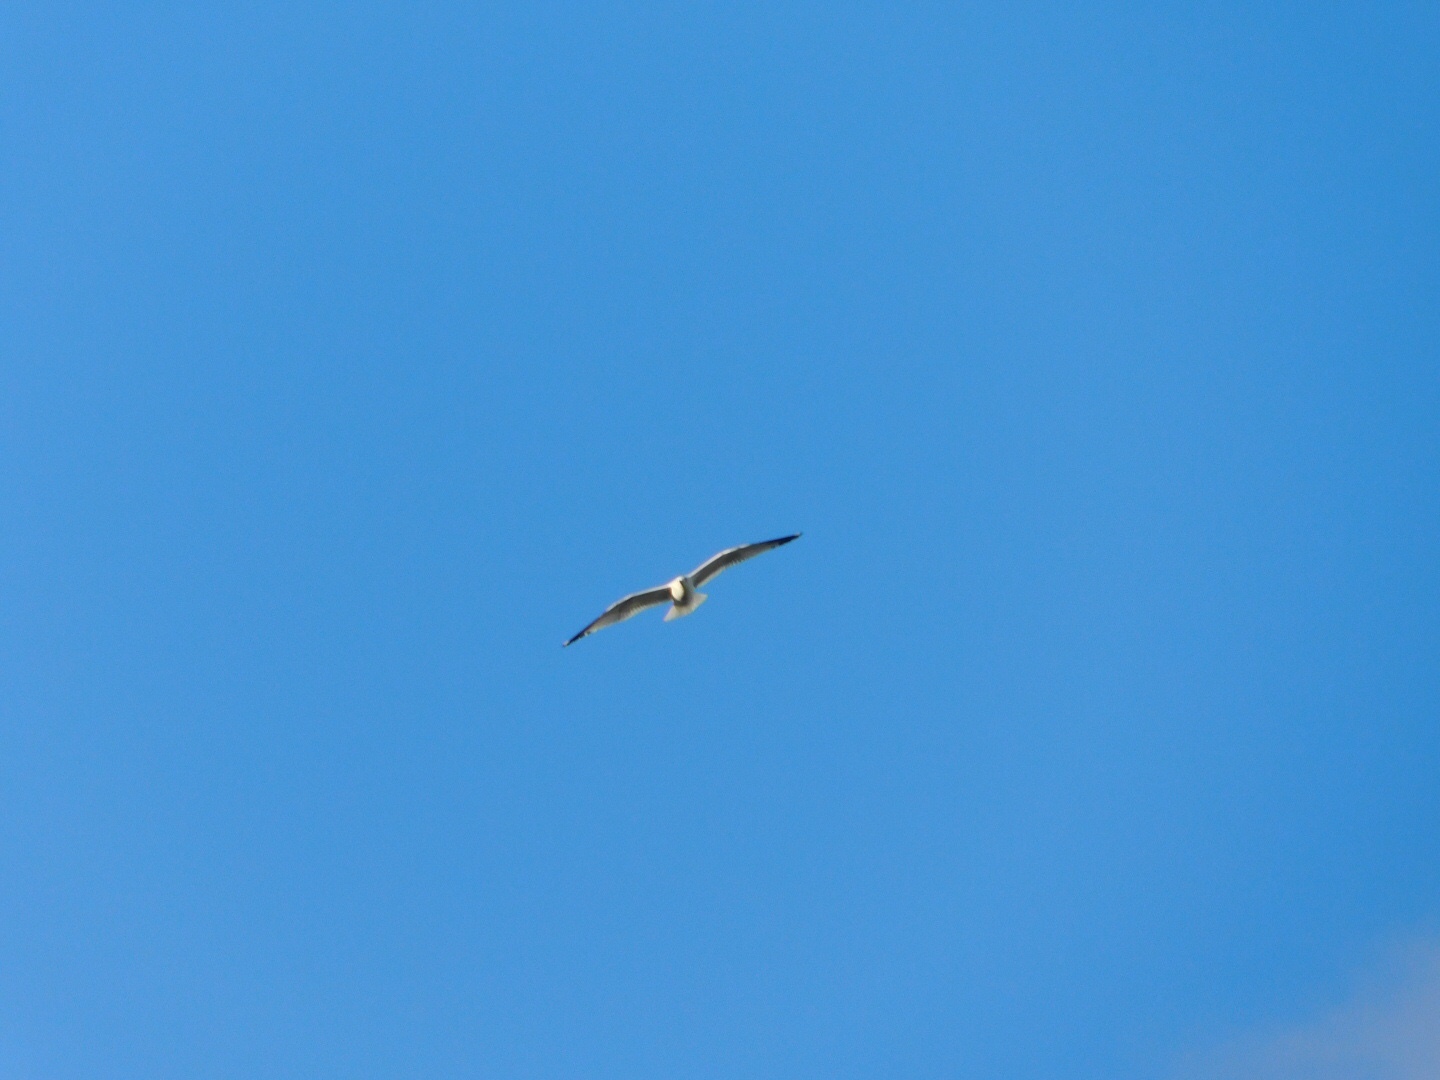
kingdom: Animalia
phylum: Chordata
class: Aves
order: Charadriiformes
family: Laridae
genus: Larus
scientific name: Larus delawarensis
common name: Ring-billed gull
